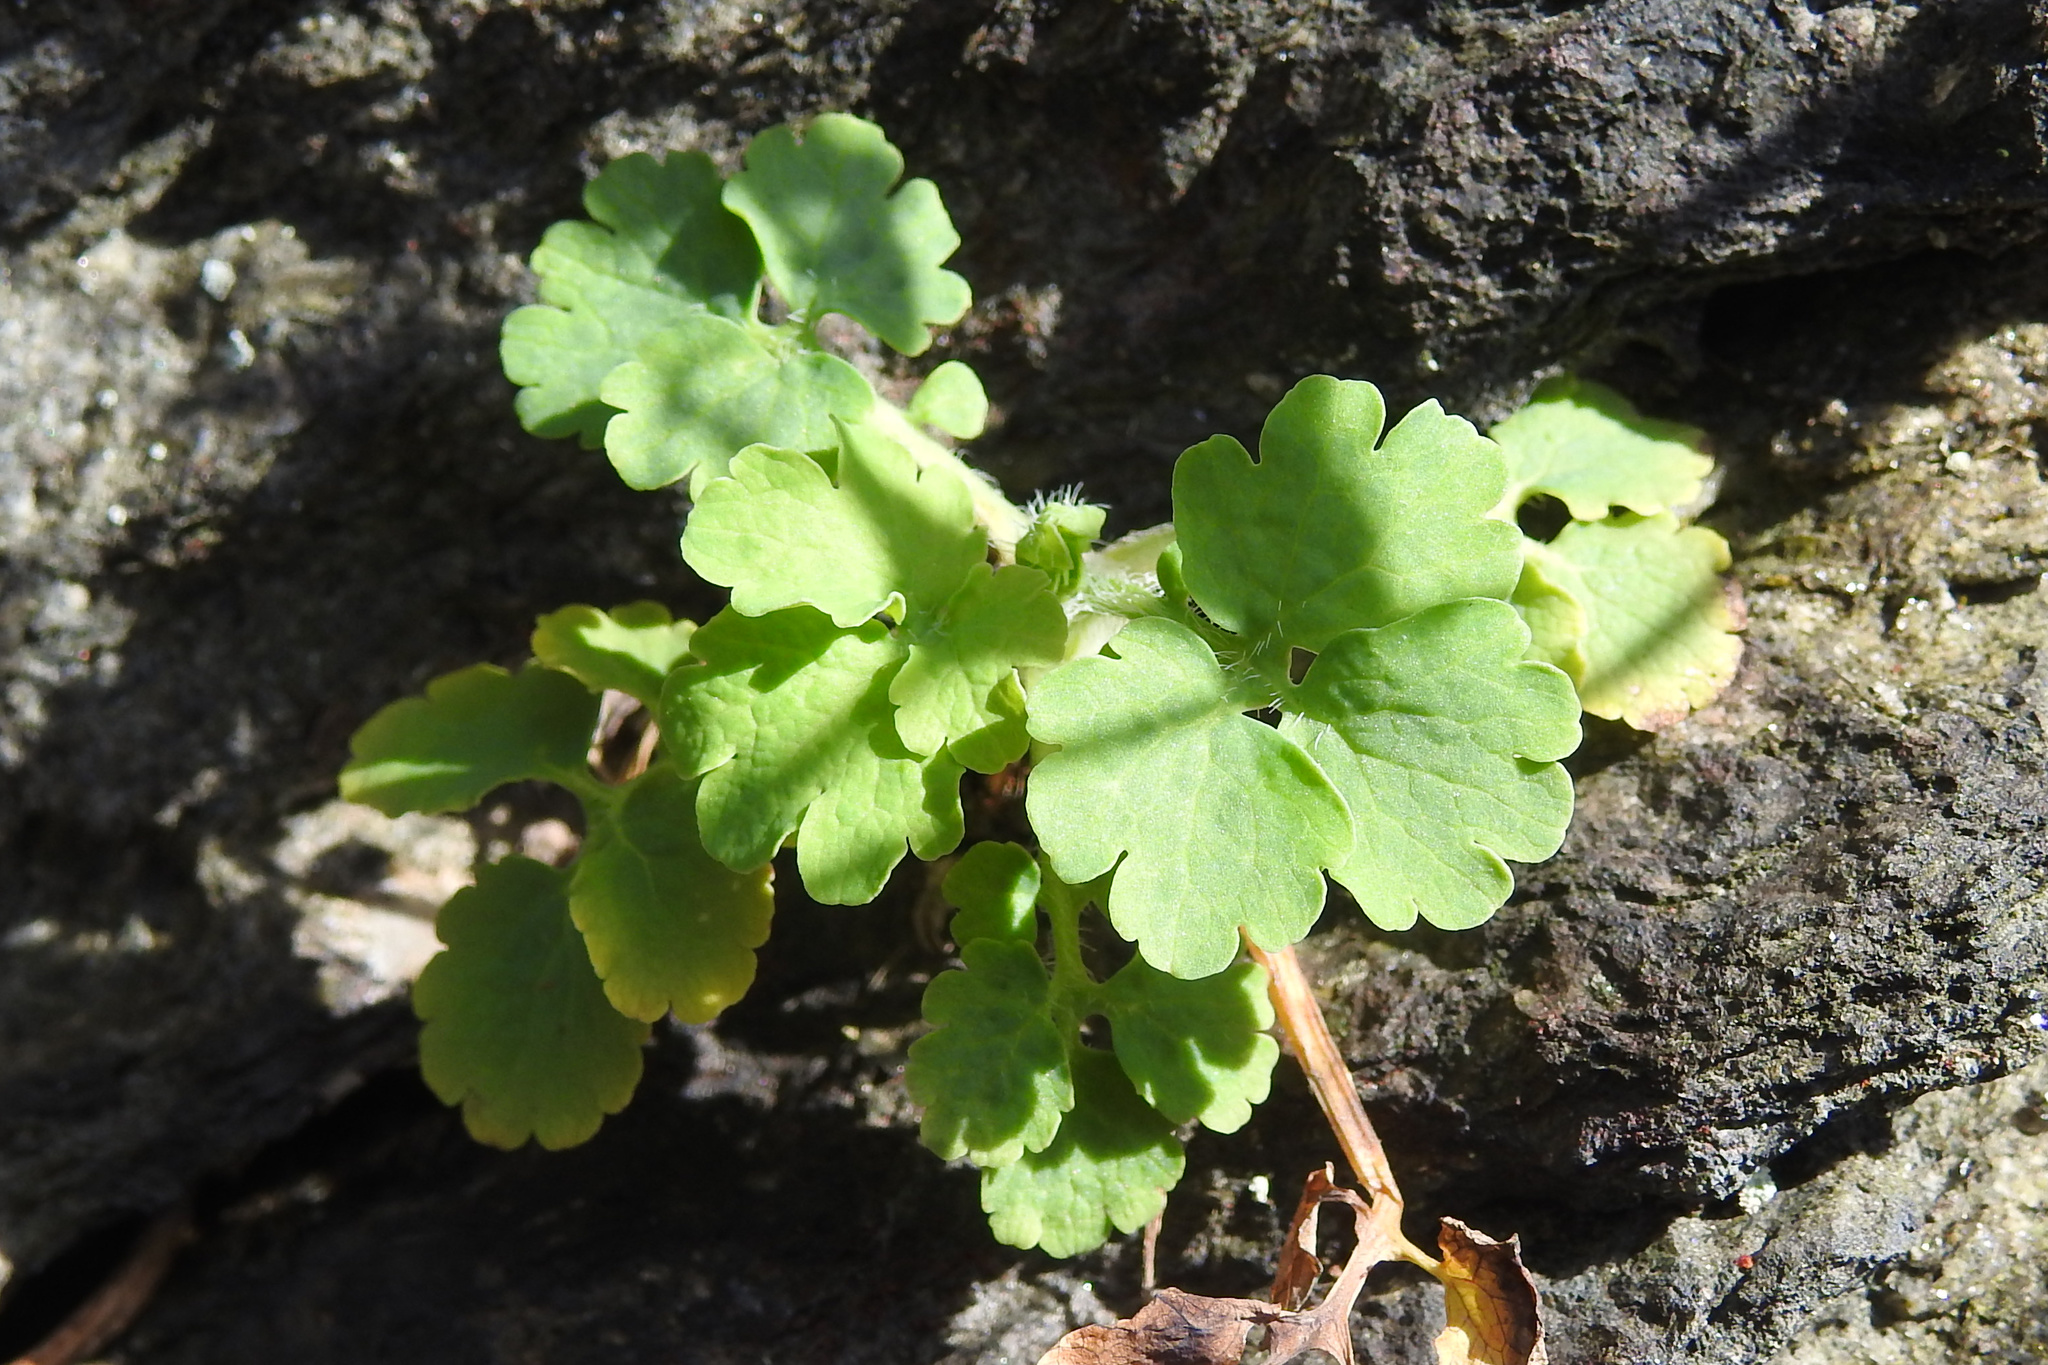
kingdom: Plantae
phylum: Tracheophyta
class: Magnoliopsida
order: Ranunculales
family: Papaveraceae
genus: Chelidonium
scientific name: Chelidonium majus
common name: Greater celandine
